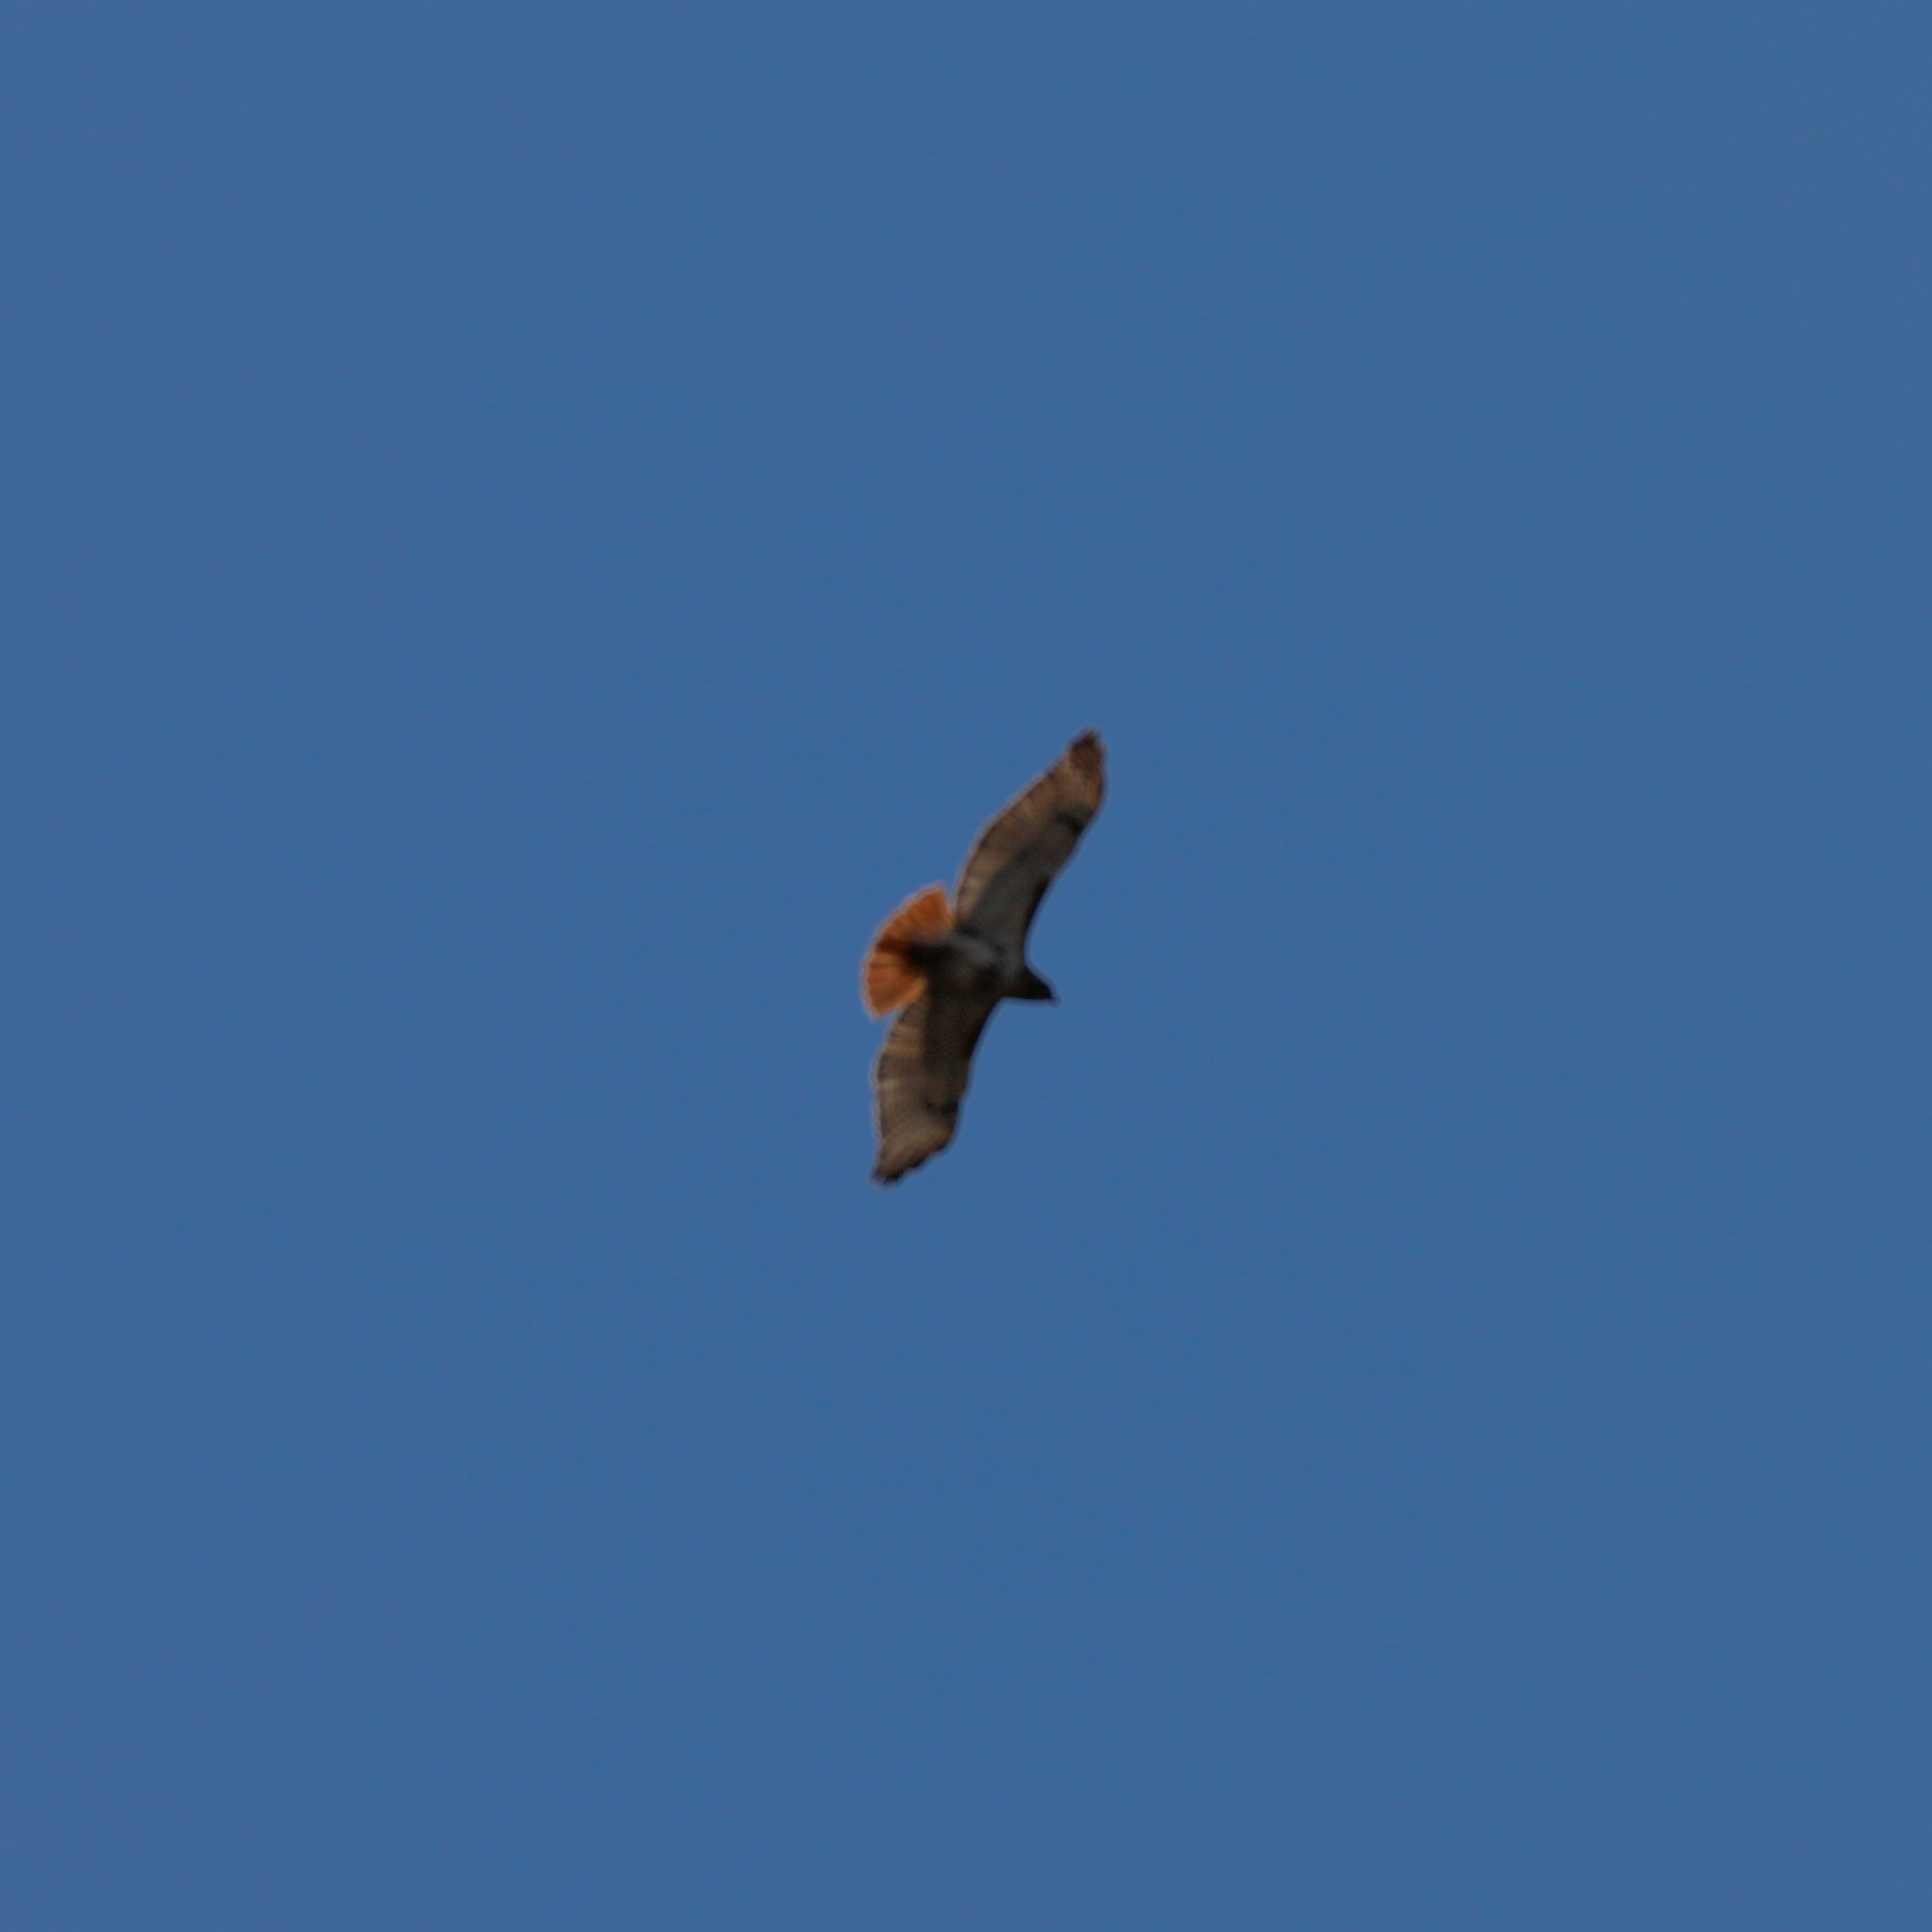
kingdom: Animalia
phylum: Chordata
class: Aves
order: Accipitriformes
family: Accipitridae
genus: Buteo
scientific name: Buteo jamaicensis
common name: Red-tailed hawk
